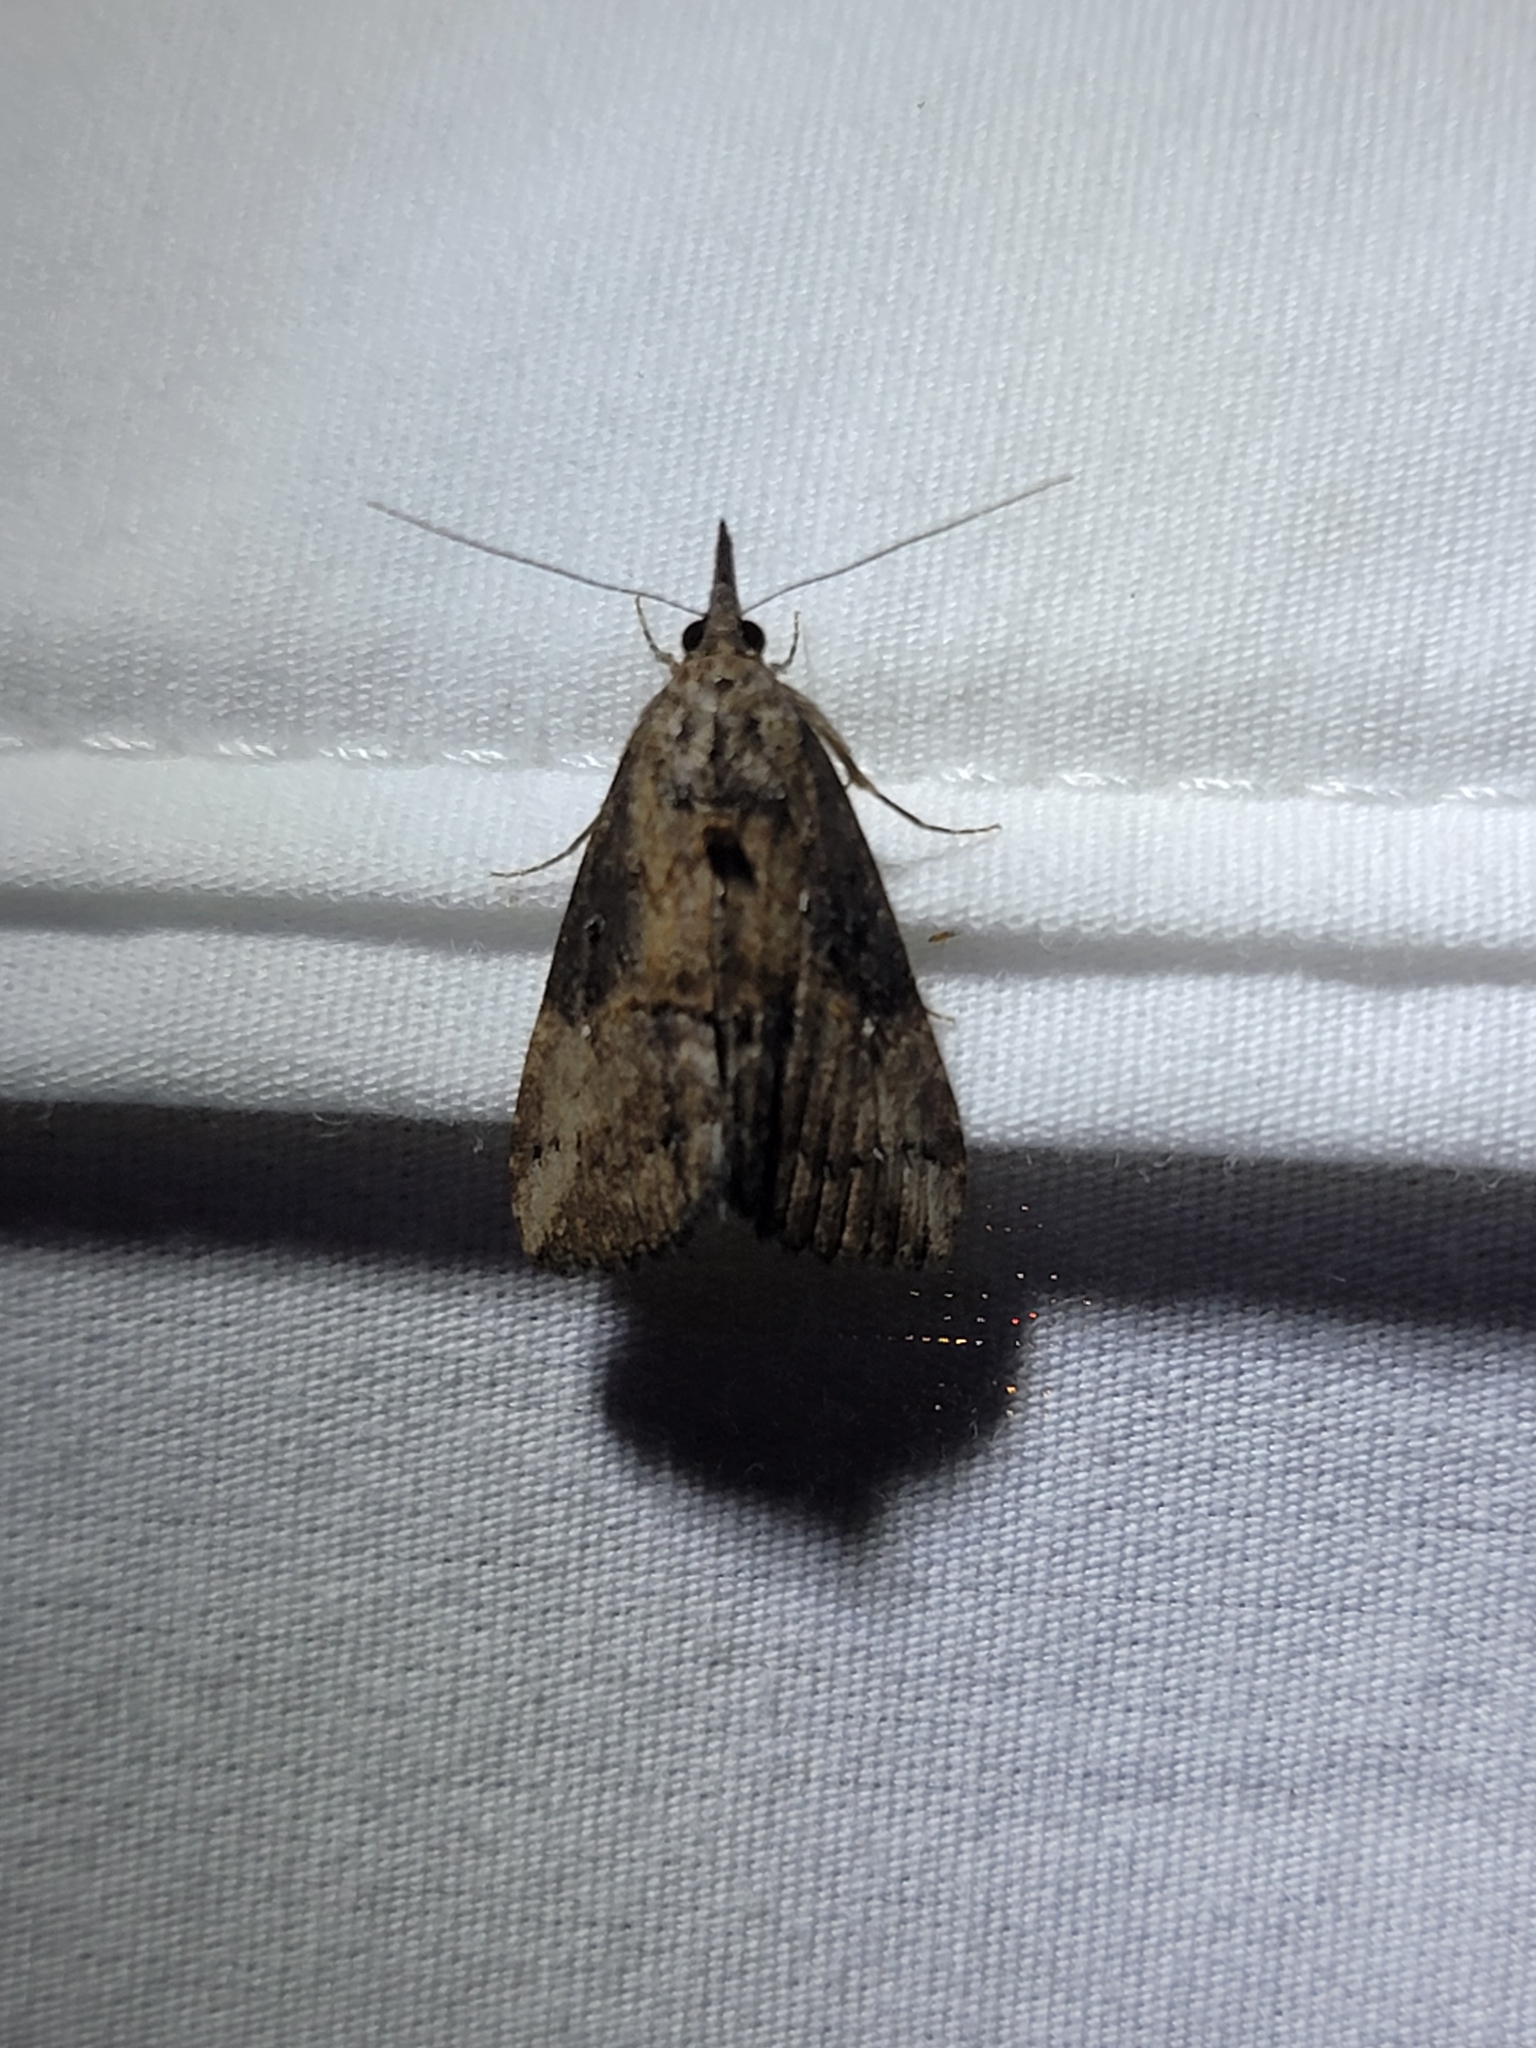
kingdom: Animalia
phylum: Arthropoda
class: Insecta
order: Lepidoptera
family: Erebidae
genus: Hypena
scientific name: Hypena scabra
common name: Green cloverworm
